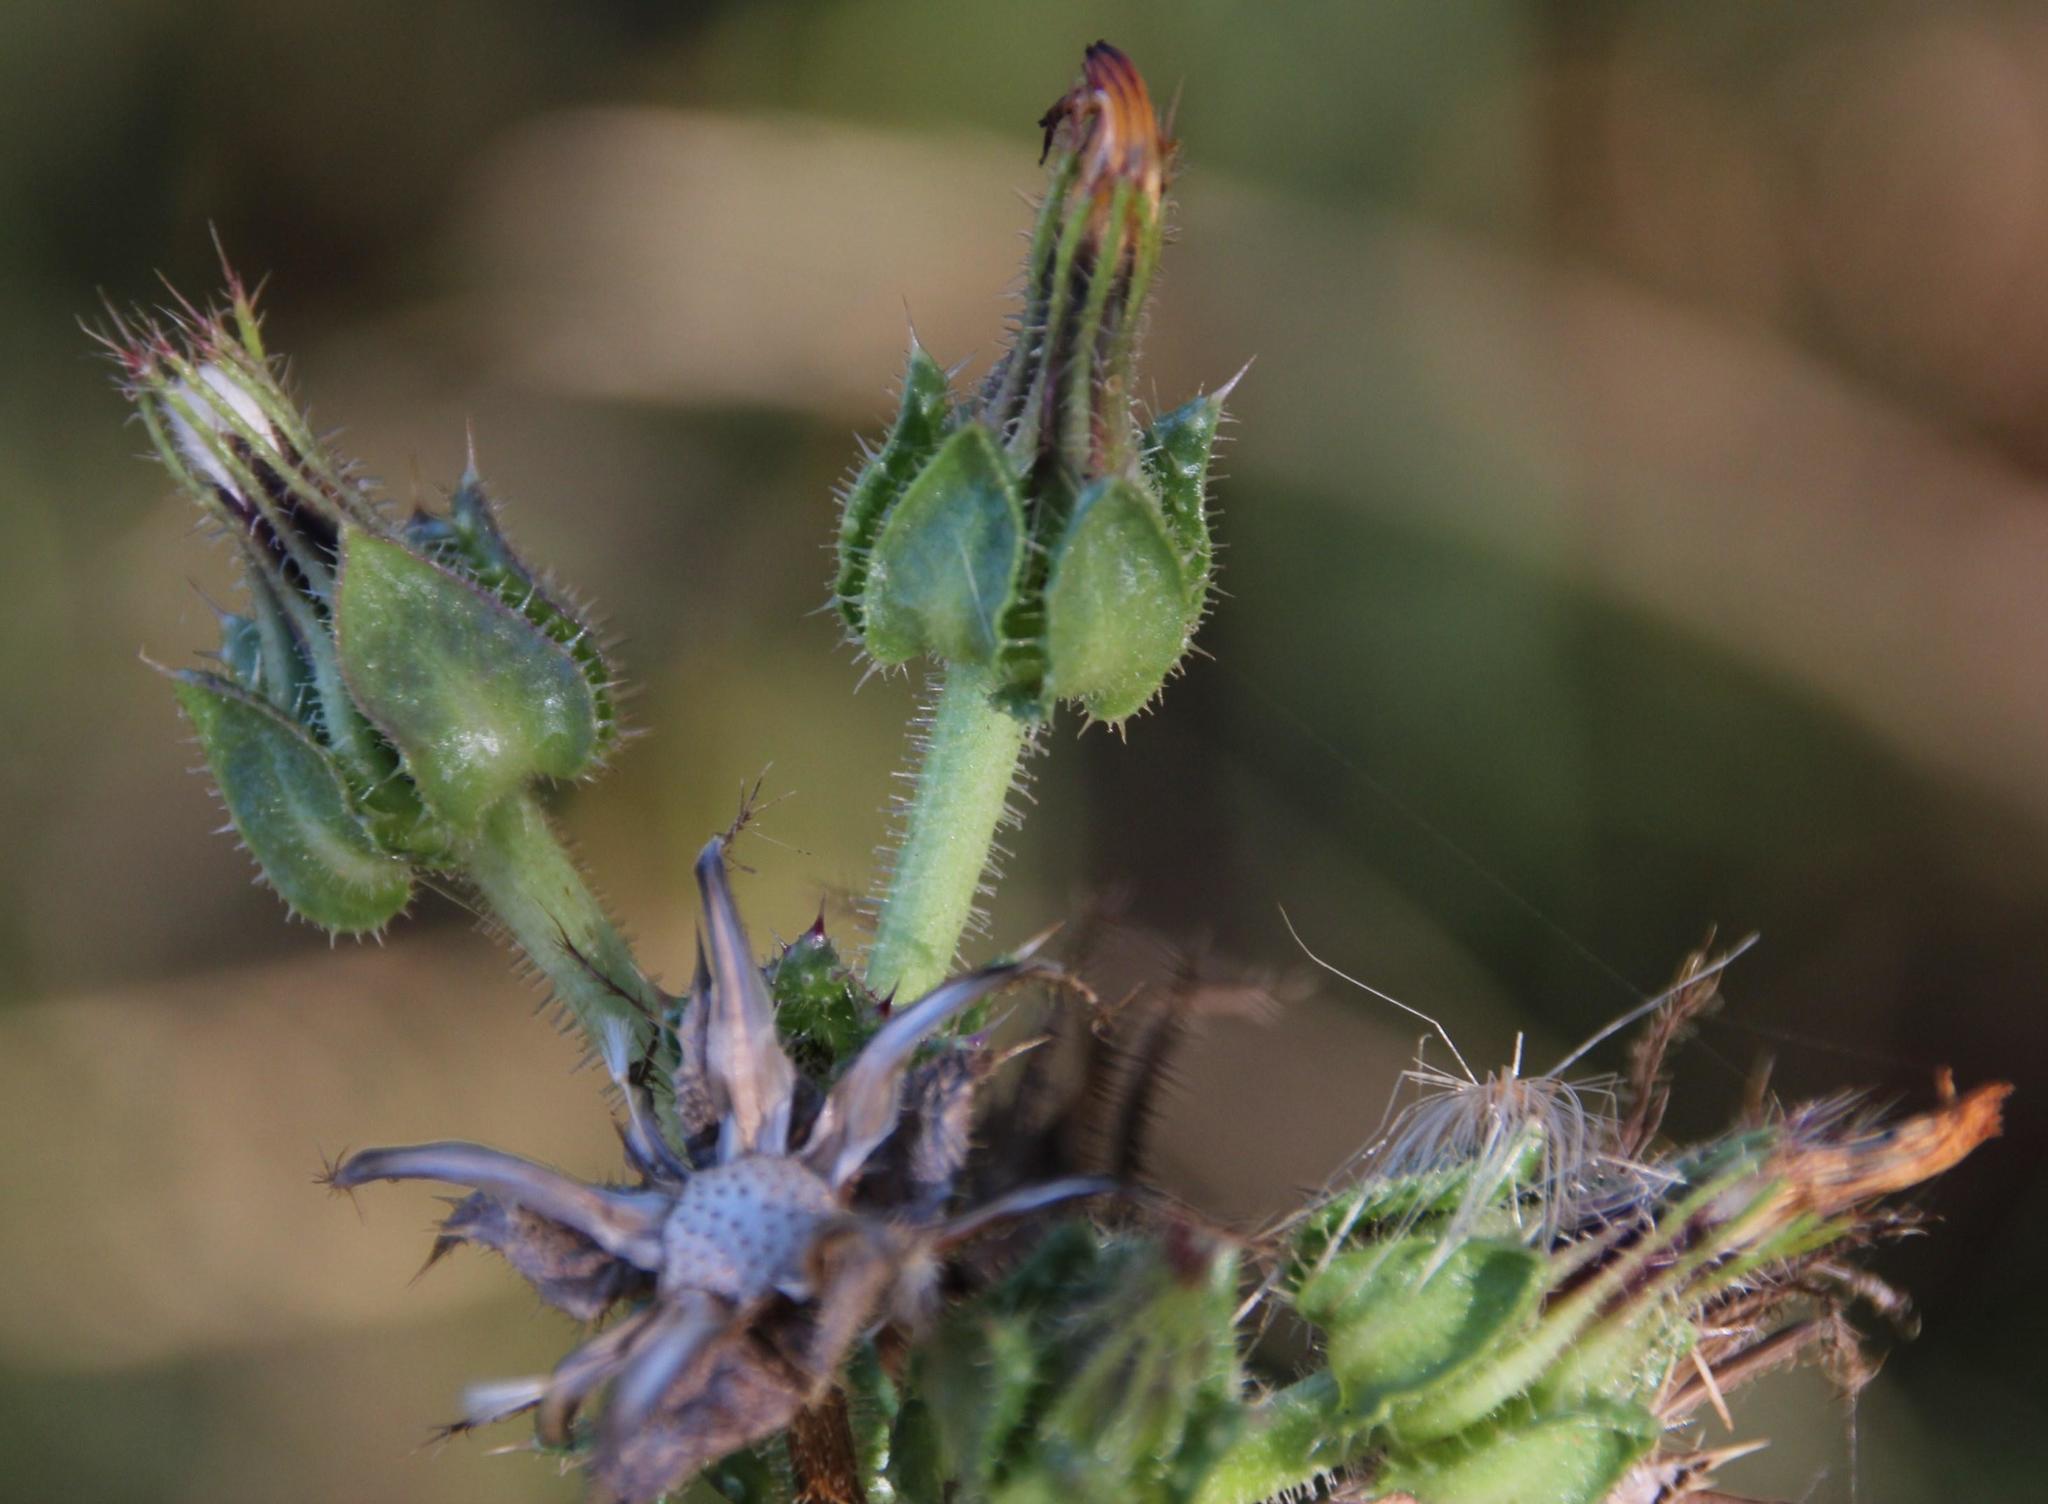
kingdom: Plantae
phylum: Tracheophyta
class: Magnoliopsida
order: Asterales
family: Asteraceae
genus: Helminthotheca
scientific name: Helminthotheca echioides
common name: Ox-tongue
